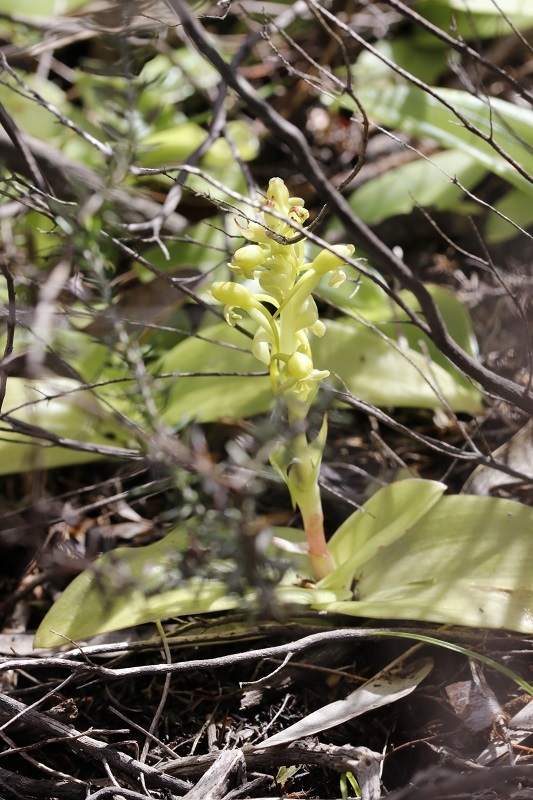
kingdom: Plantae
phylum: Tracheophyta
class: Liliopsida
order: Asparagales
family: Orchidaceae
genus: Satyrium
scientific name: Satyrium odorum
